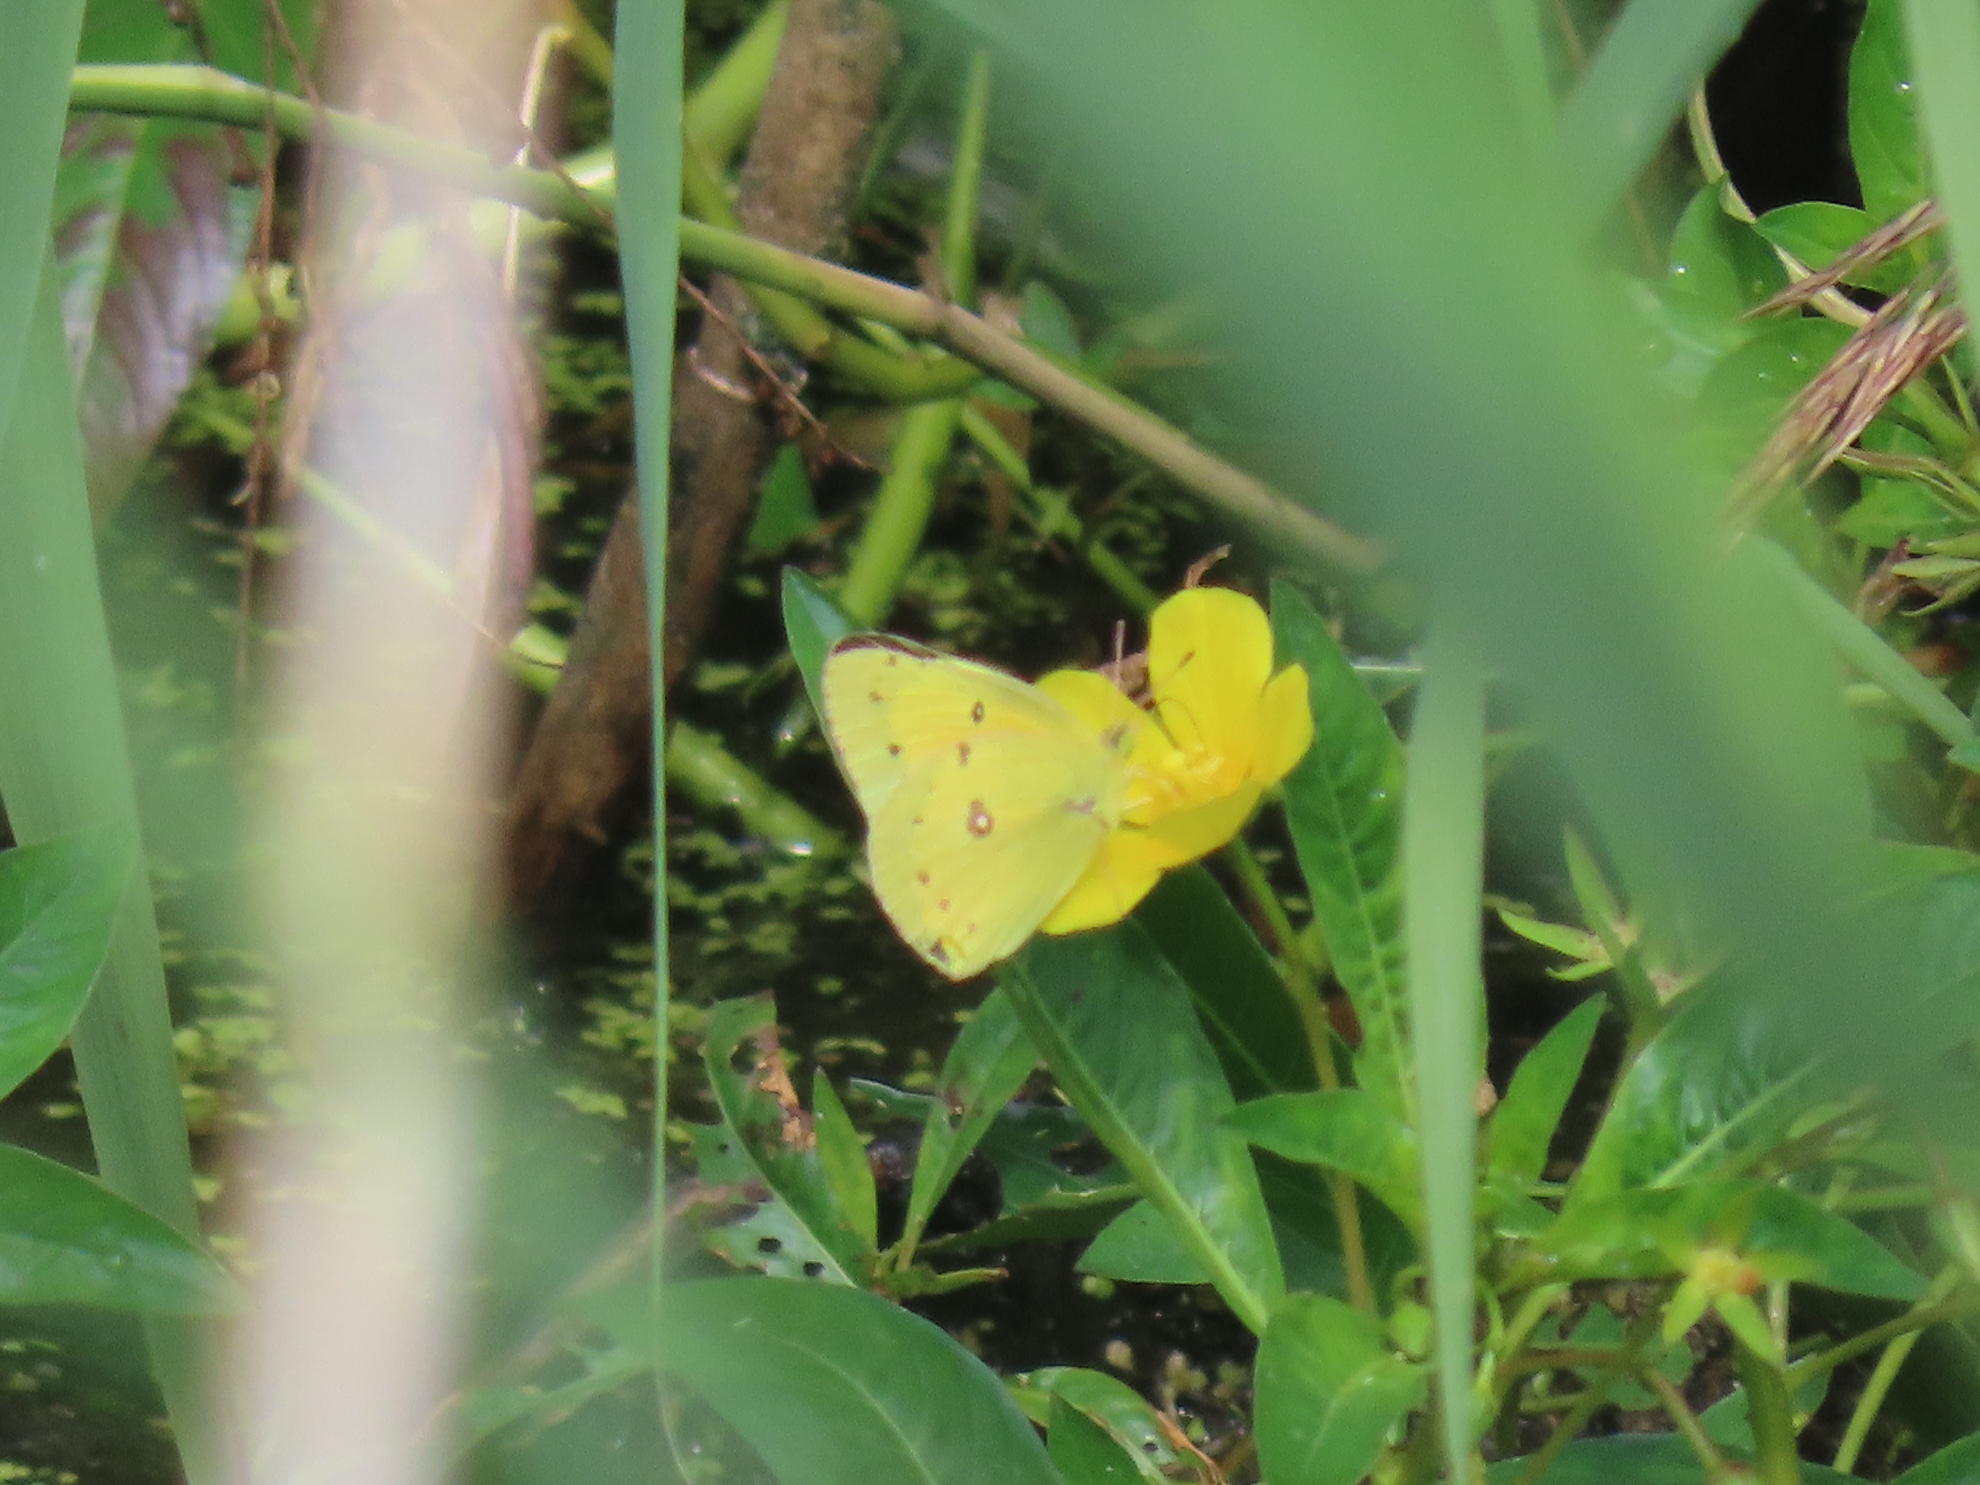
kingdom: Animalia
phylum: Arthropoda
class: Insecta
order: Lepidoptera
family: Pieridae
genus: Colias
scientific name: Colias eurytheme
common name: Alfalfa butterfly
